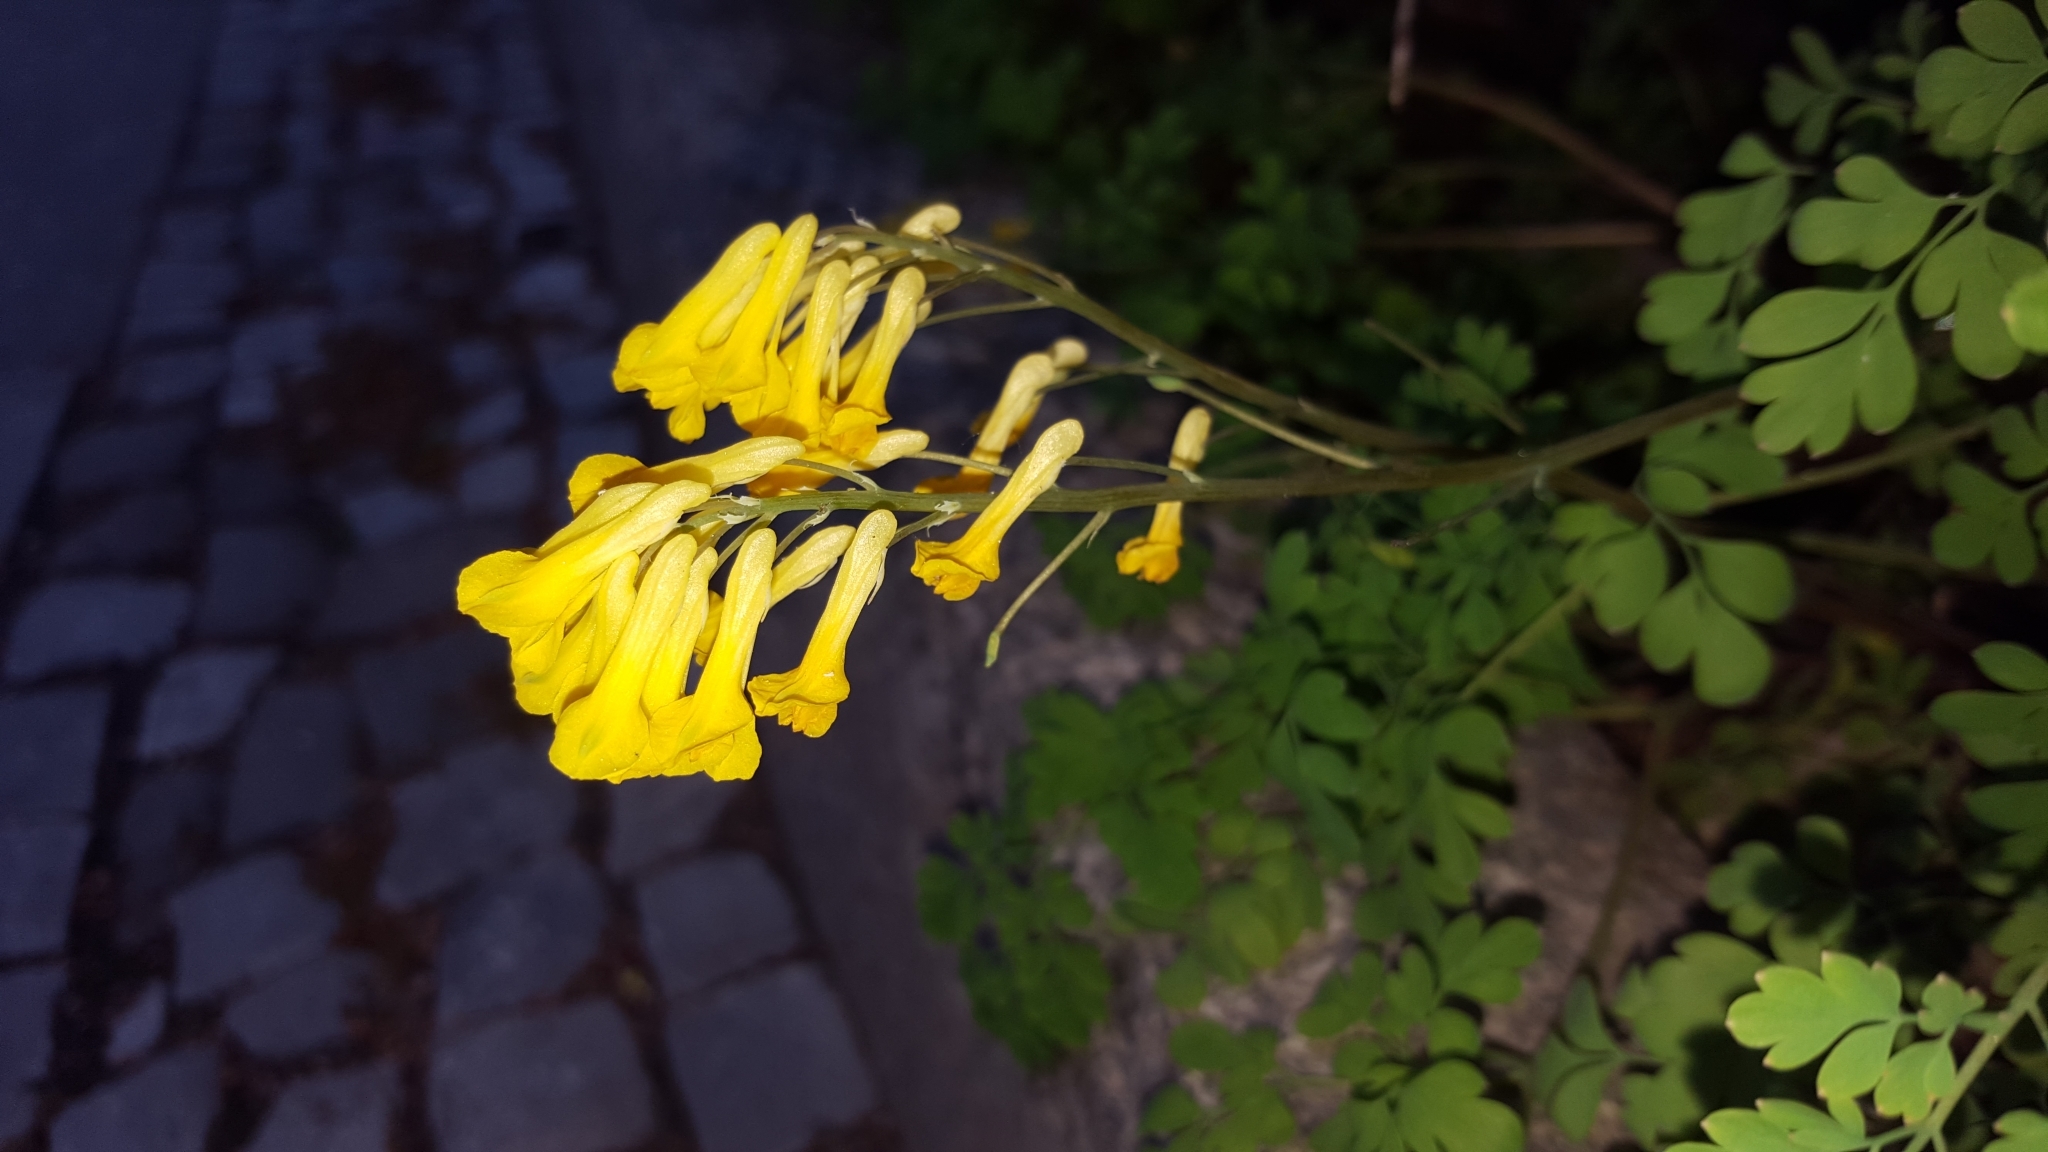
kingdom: Plantae
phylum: Tracheophyta
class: Magnoliopsida
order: Ranunculales
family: Papaveraceae
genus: Pseudofumaria
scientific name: Pseudofumaria lutea
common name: Yellow corydalis
